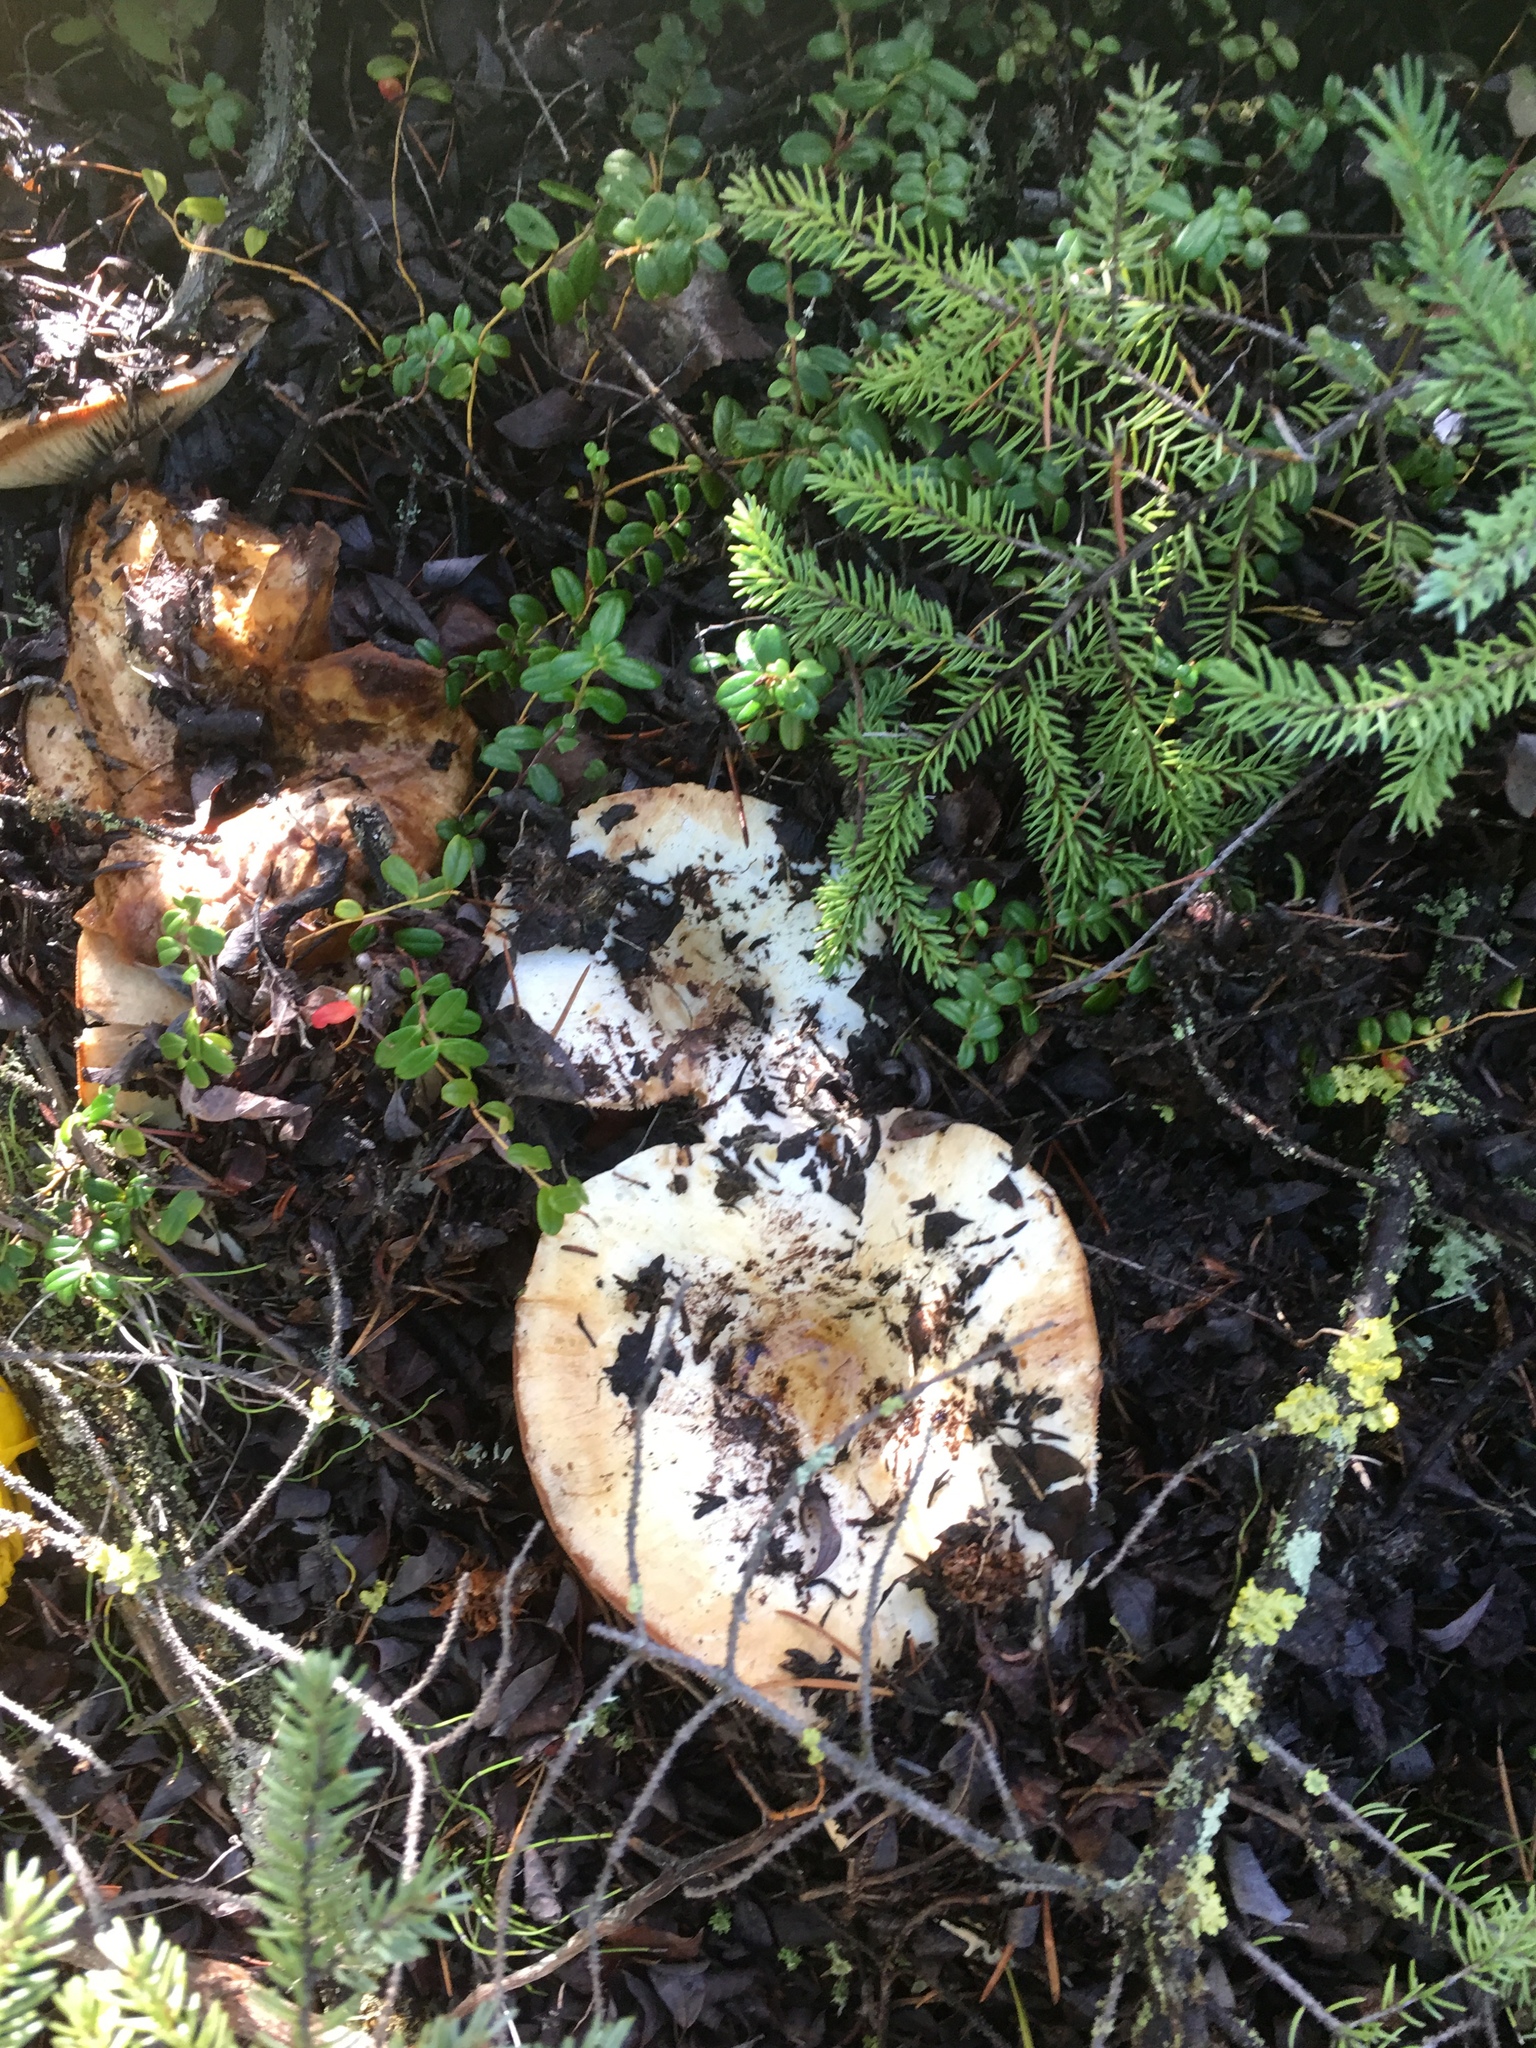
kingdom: Fungi
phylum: Basidiomycota
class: Agaricomycetes
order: Russulales
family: Russulaceae
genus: Russula
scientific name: Russula brevipes
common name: Short-stemmed russula
